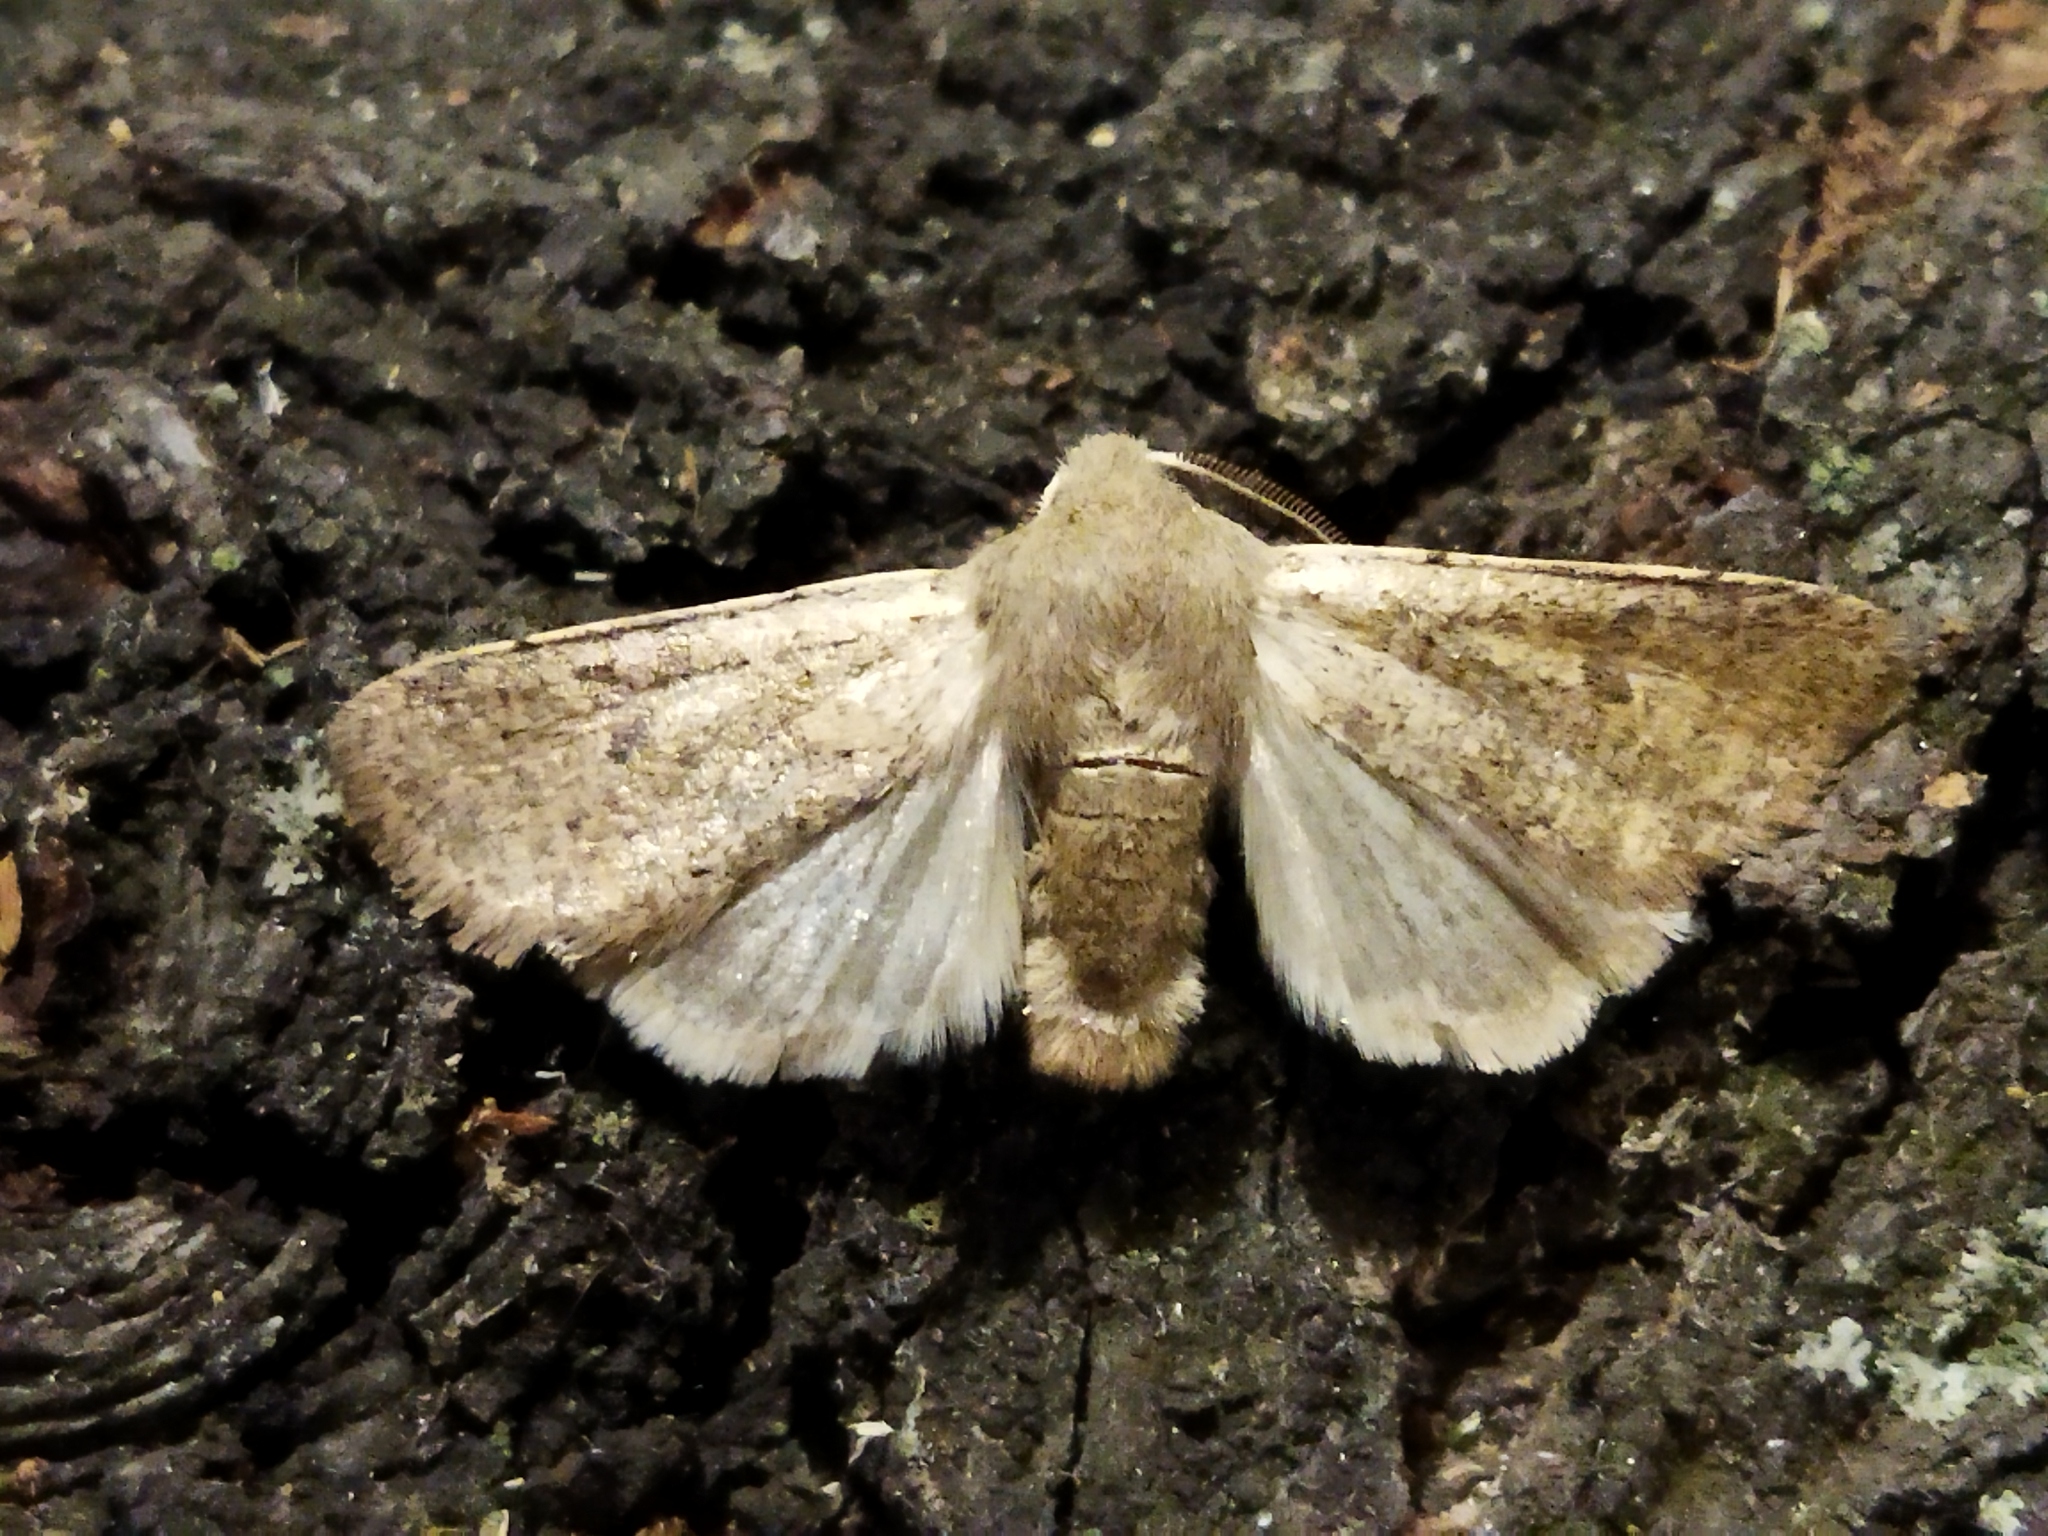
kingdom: Animalia
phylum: Arthropoda
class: Insecta
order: Lepidoptera
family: Noctuidae
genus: Orthosia
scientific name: Orthosia cruda
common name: Small quaker
